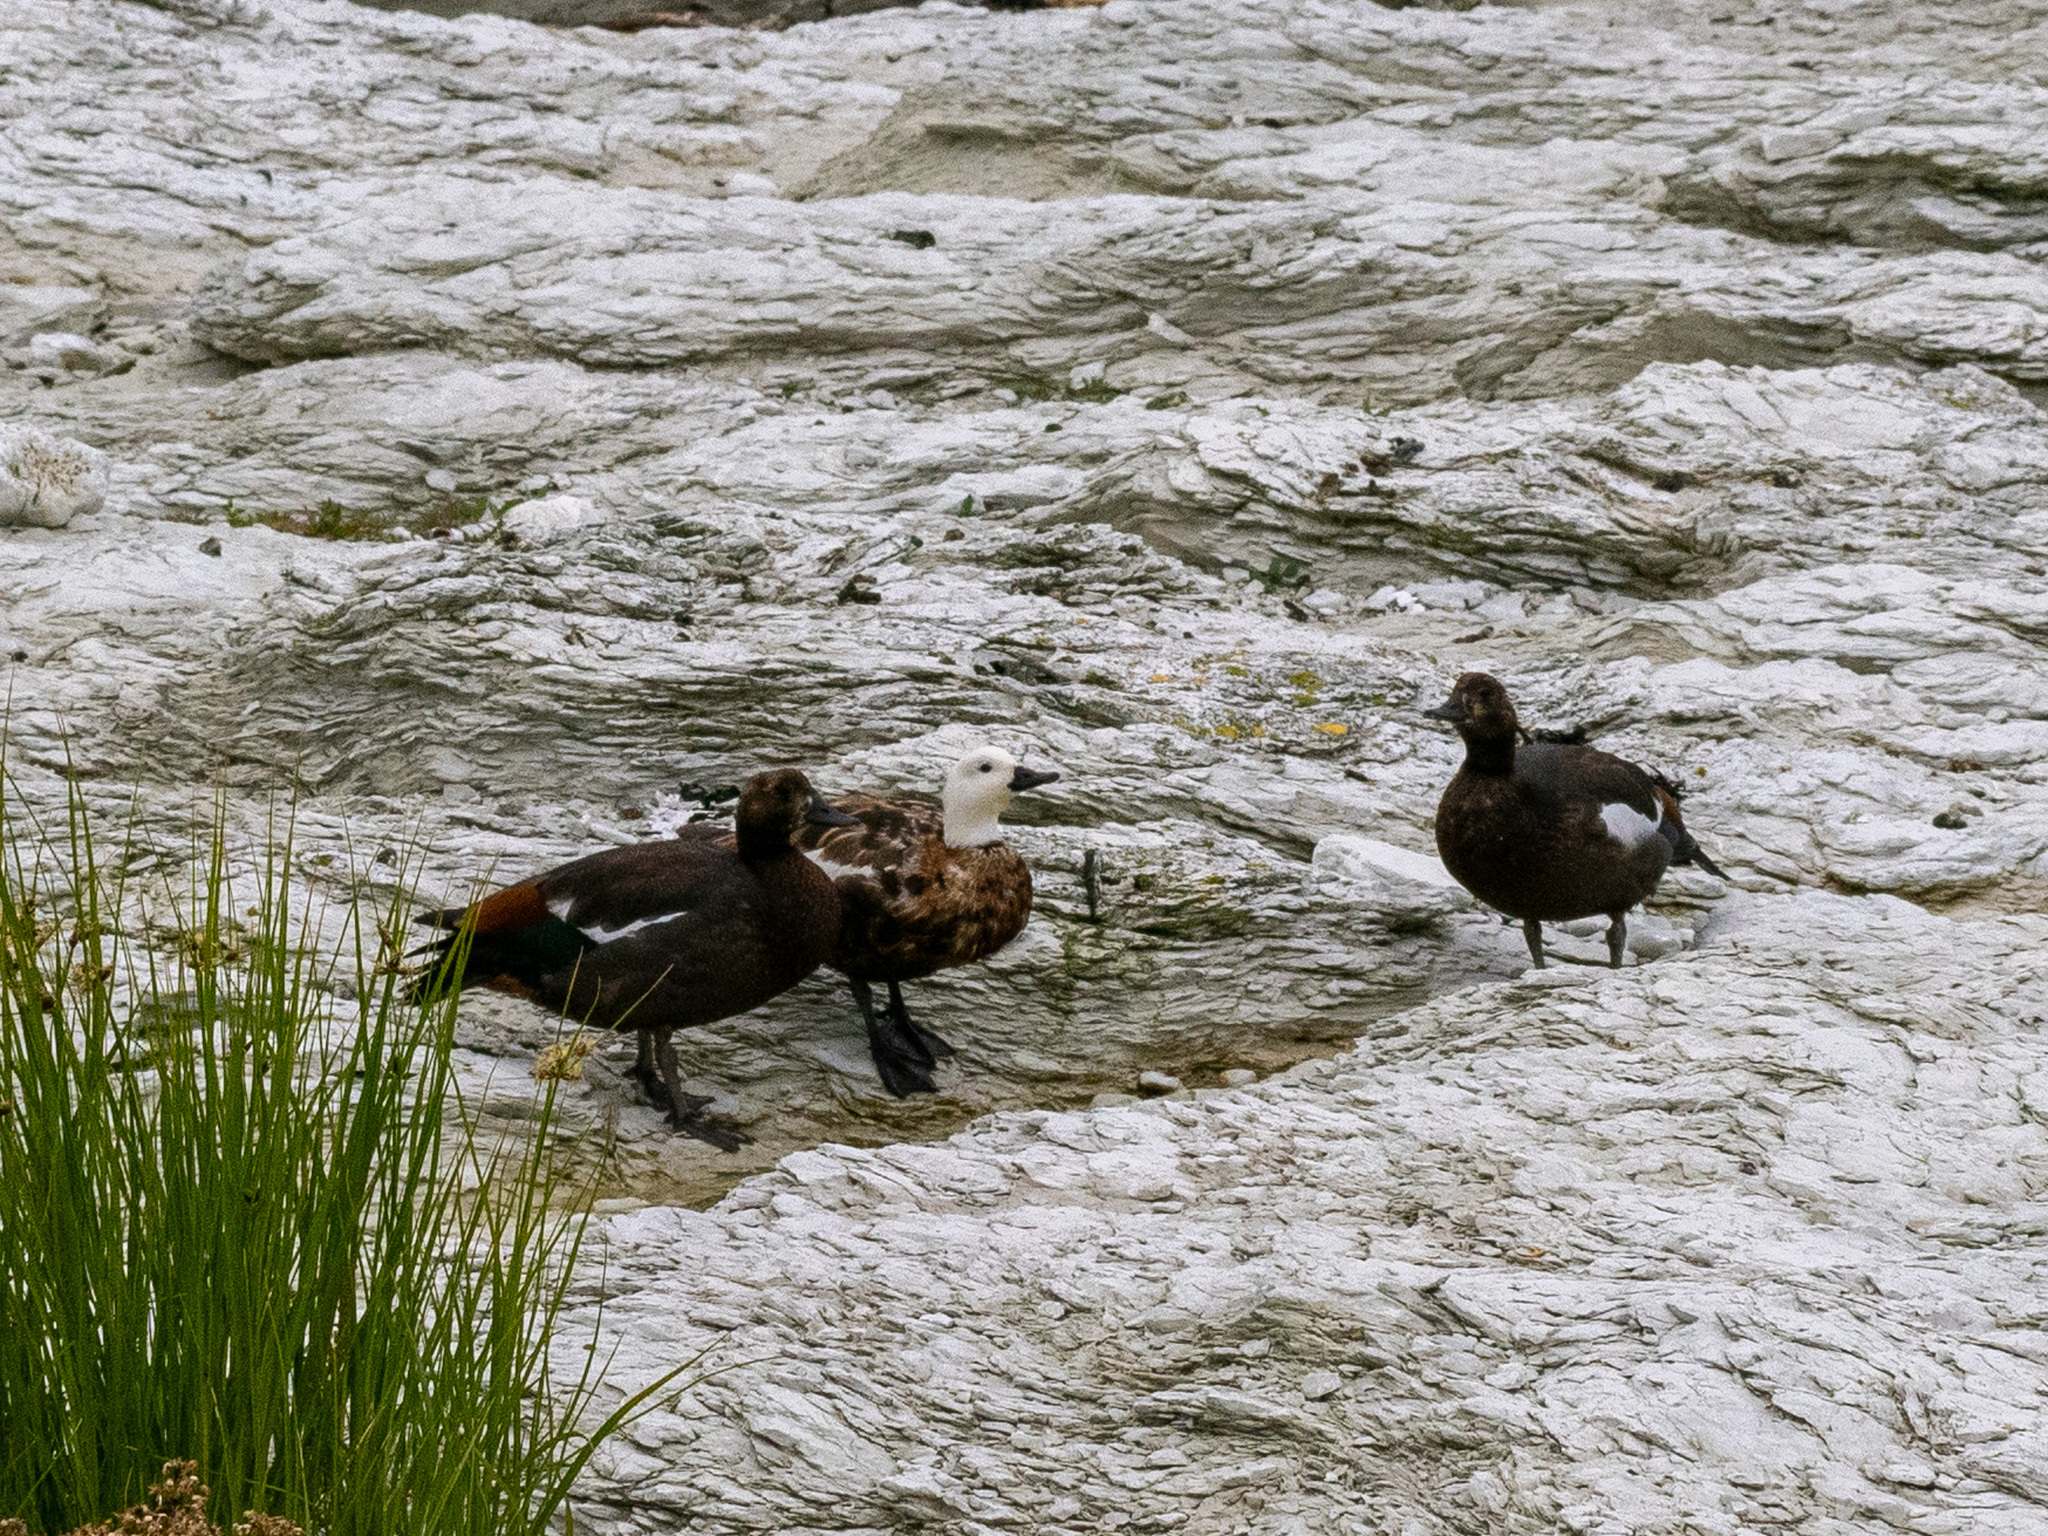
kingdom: Animalia
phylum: Chordata
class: Aves
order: Anseriformes
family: Anatidae
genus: Tadorna
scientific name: Tadorna variegata
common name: Paradise shelduck
